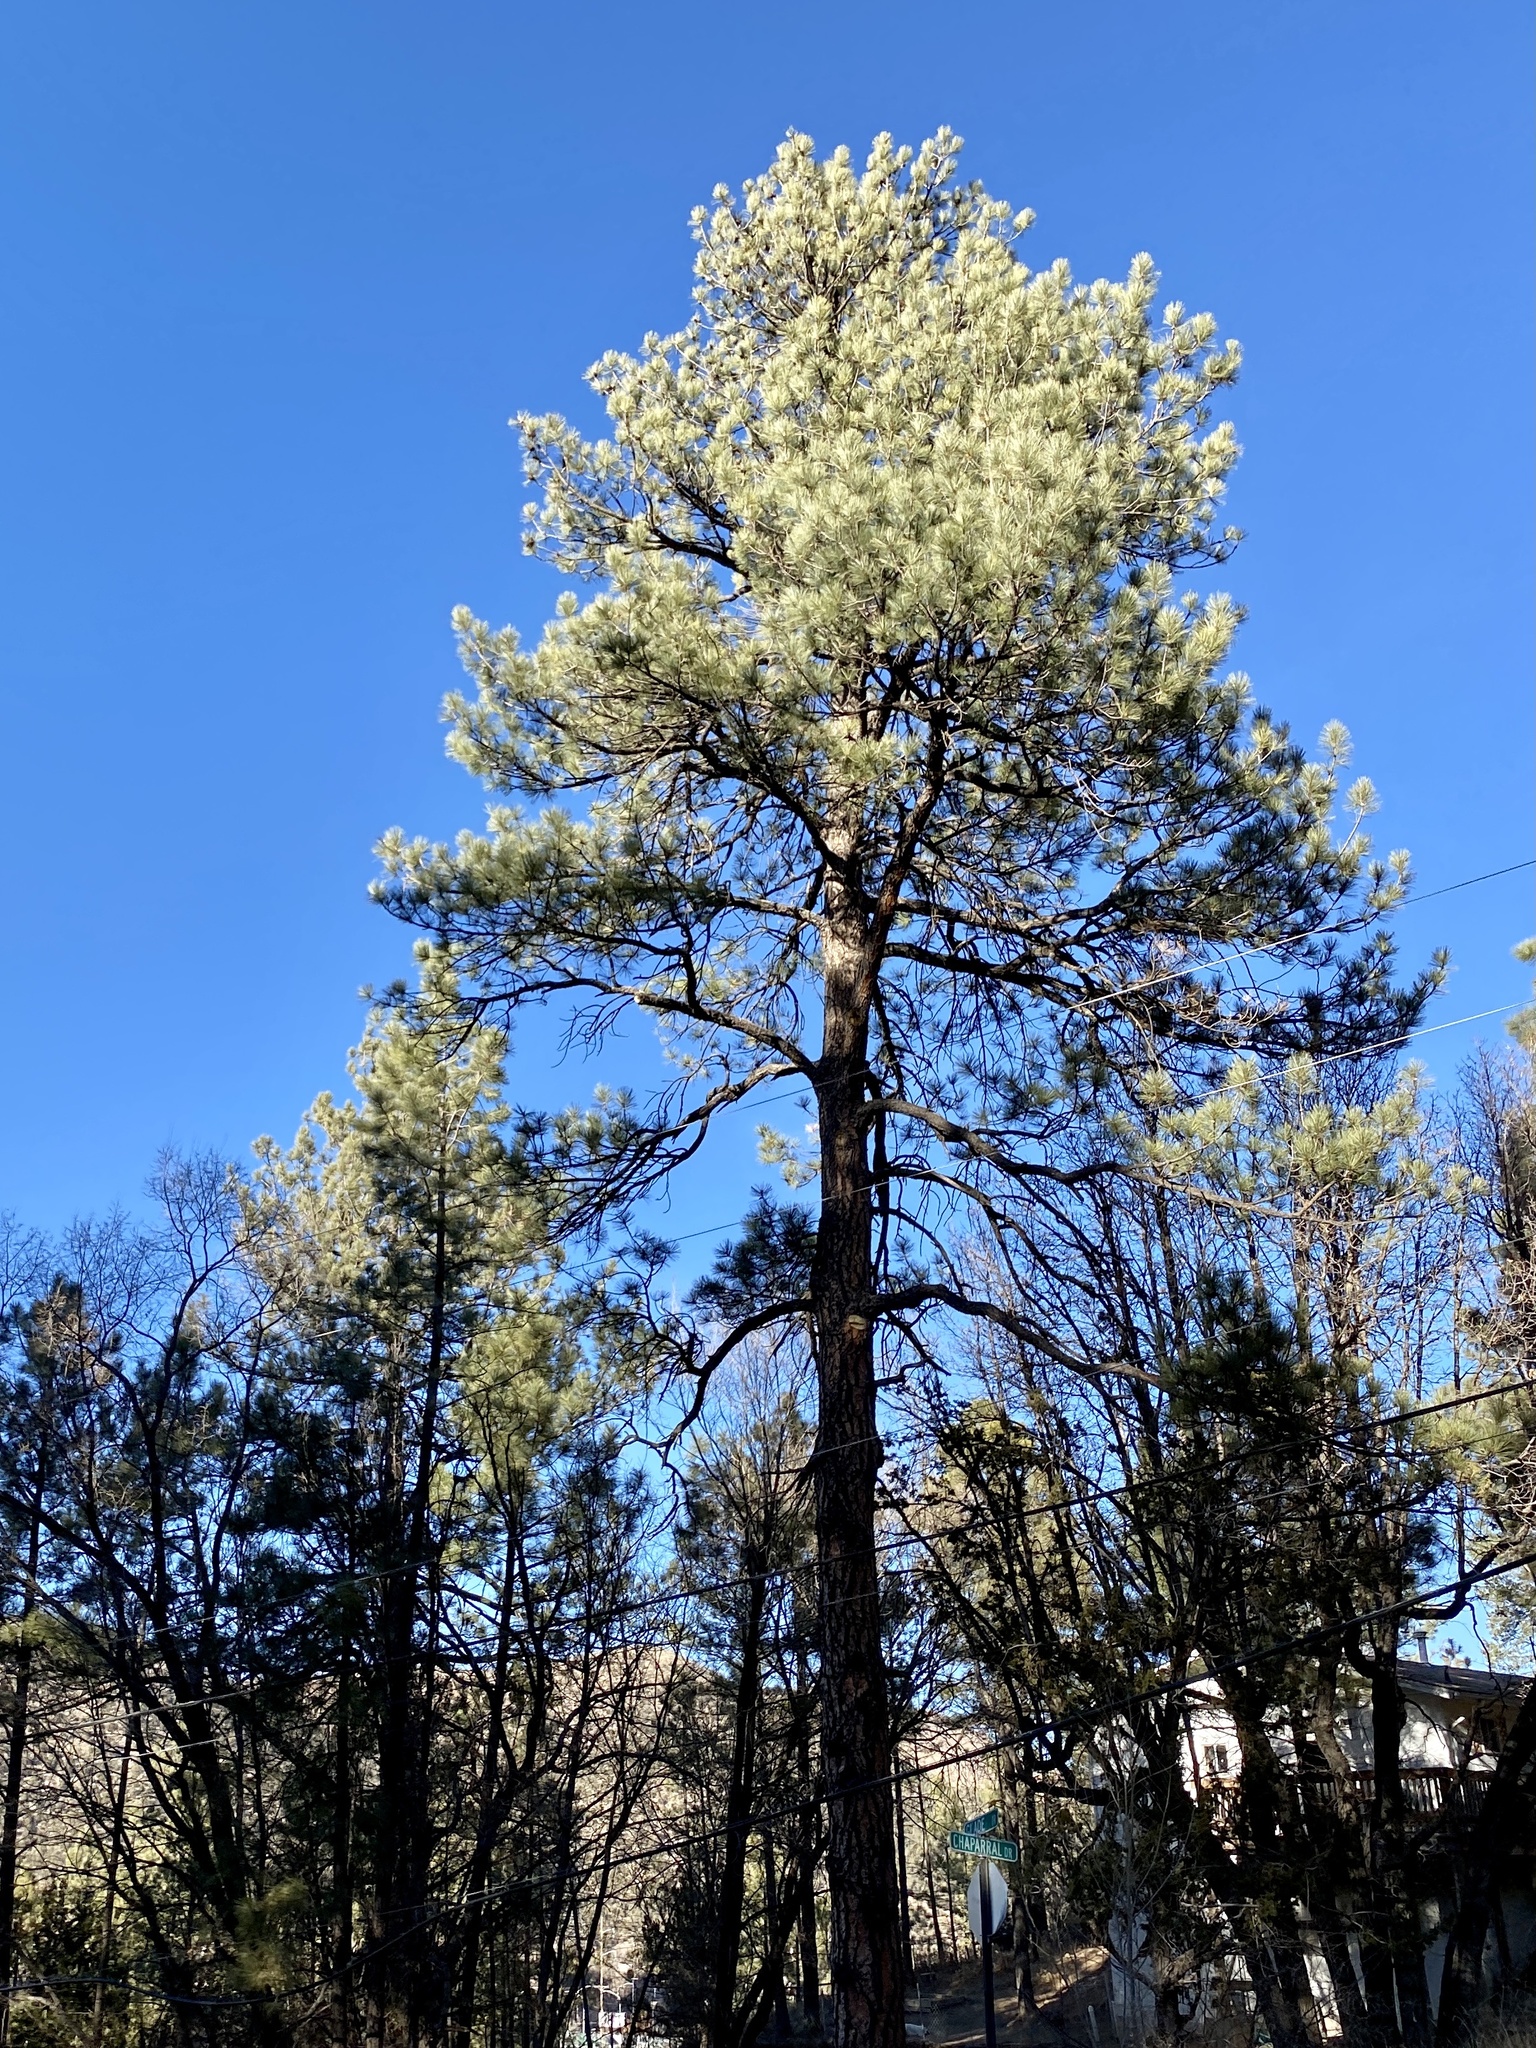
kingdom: Plantae
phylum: Tracheophyta
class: Pinopsida
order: Pinales
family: Pinaceae
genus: Pinus
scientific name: Pinus ponderosa
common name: Western yellow-pine
